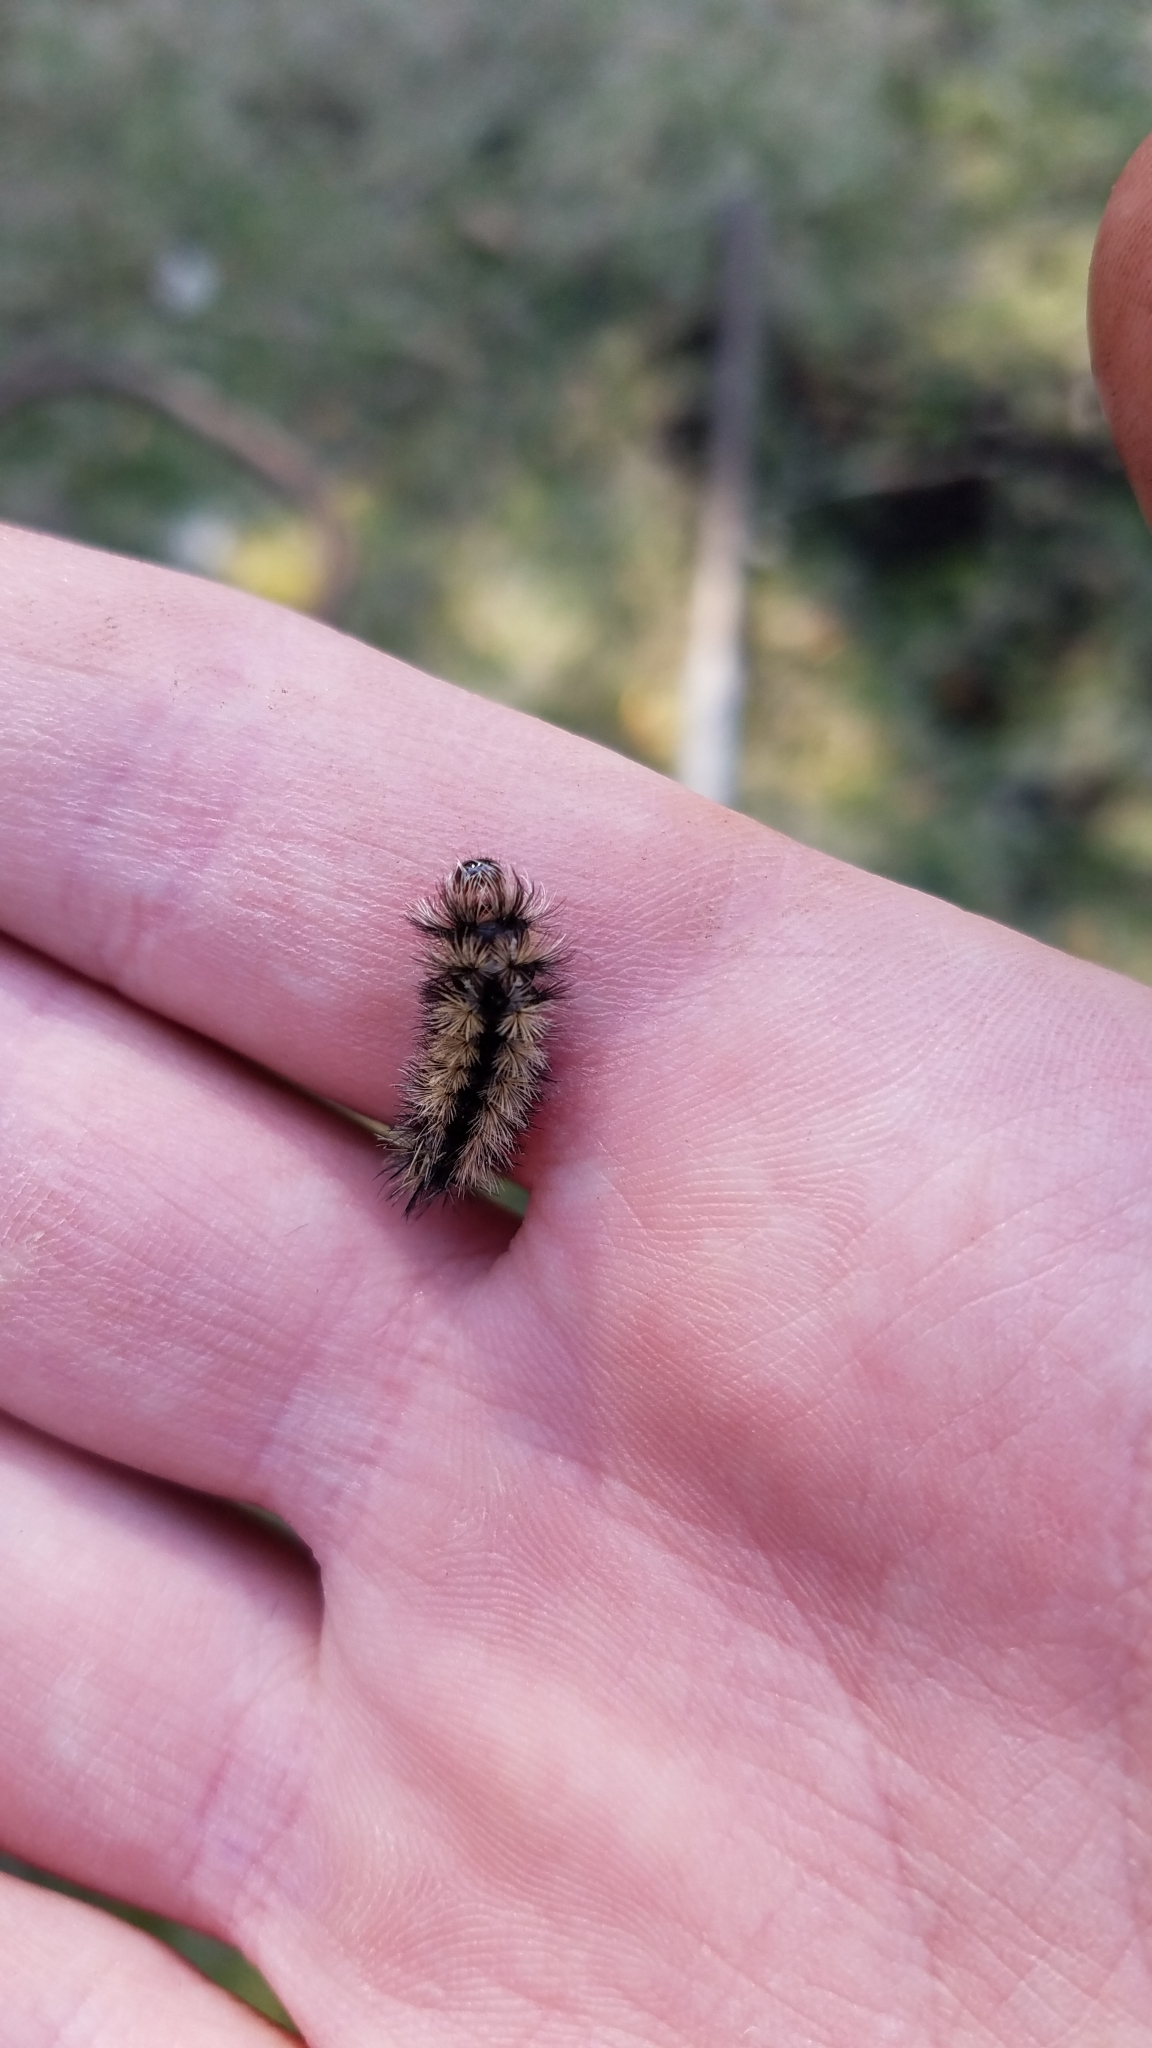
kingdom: Animalia
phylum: Arthropoda
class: Insecta
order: Lepidoptera
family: Erebidae
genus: Ctenucha
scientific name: Ctenucha virginica
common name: Virginia ctenucha moth
